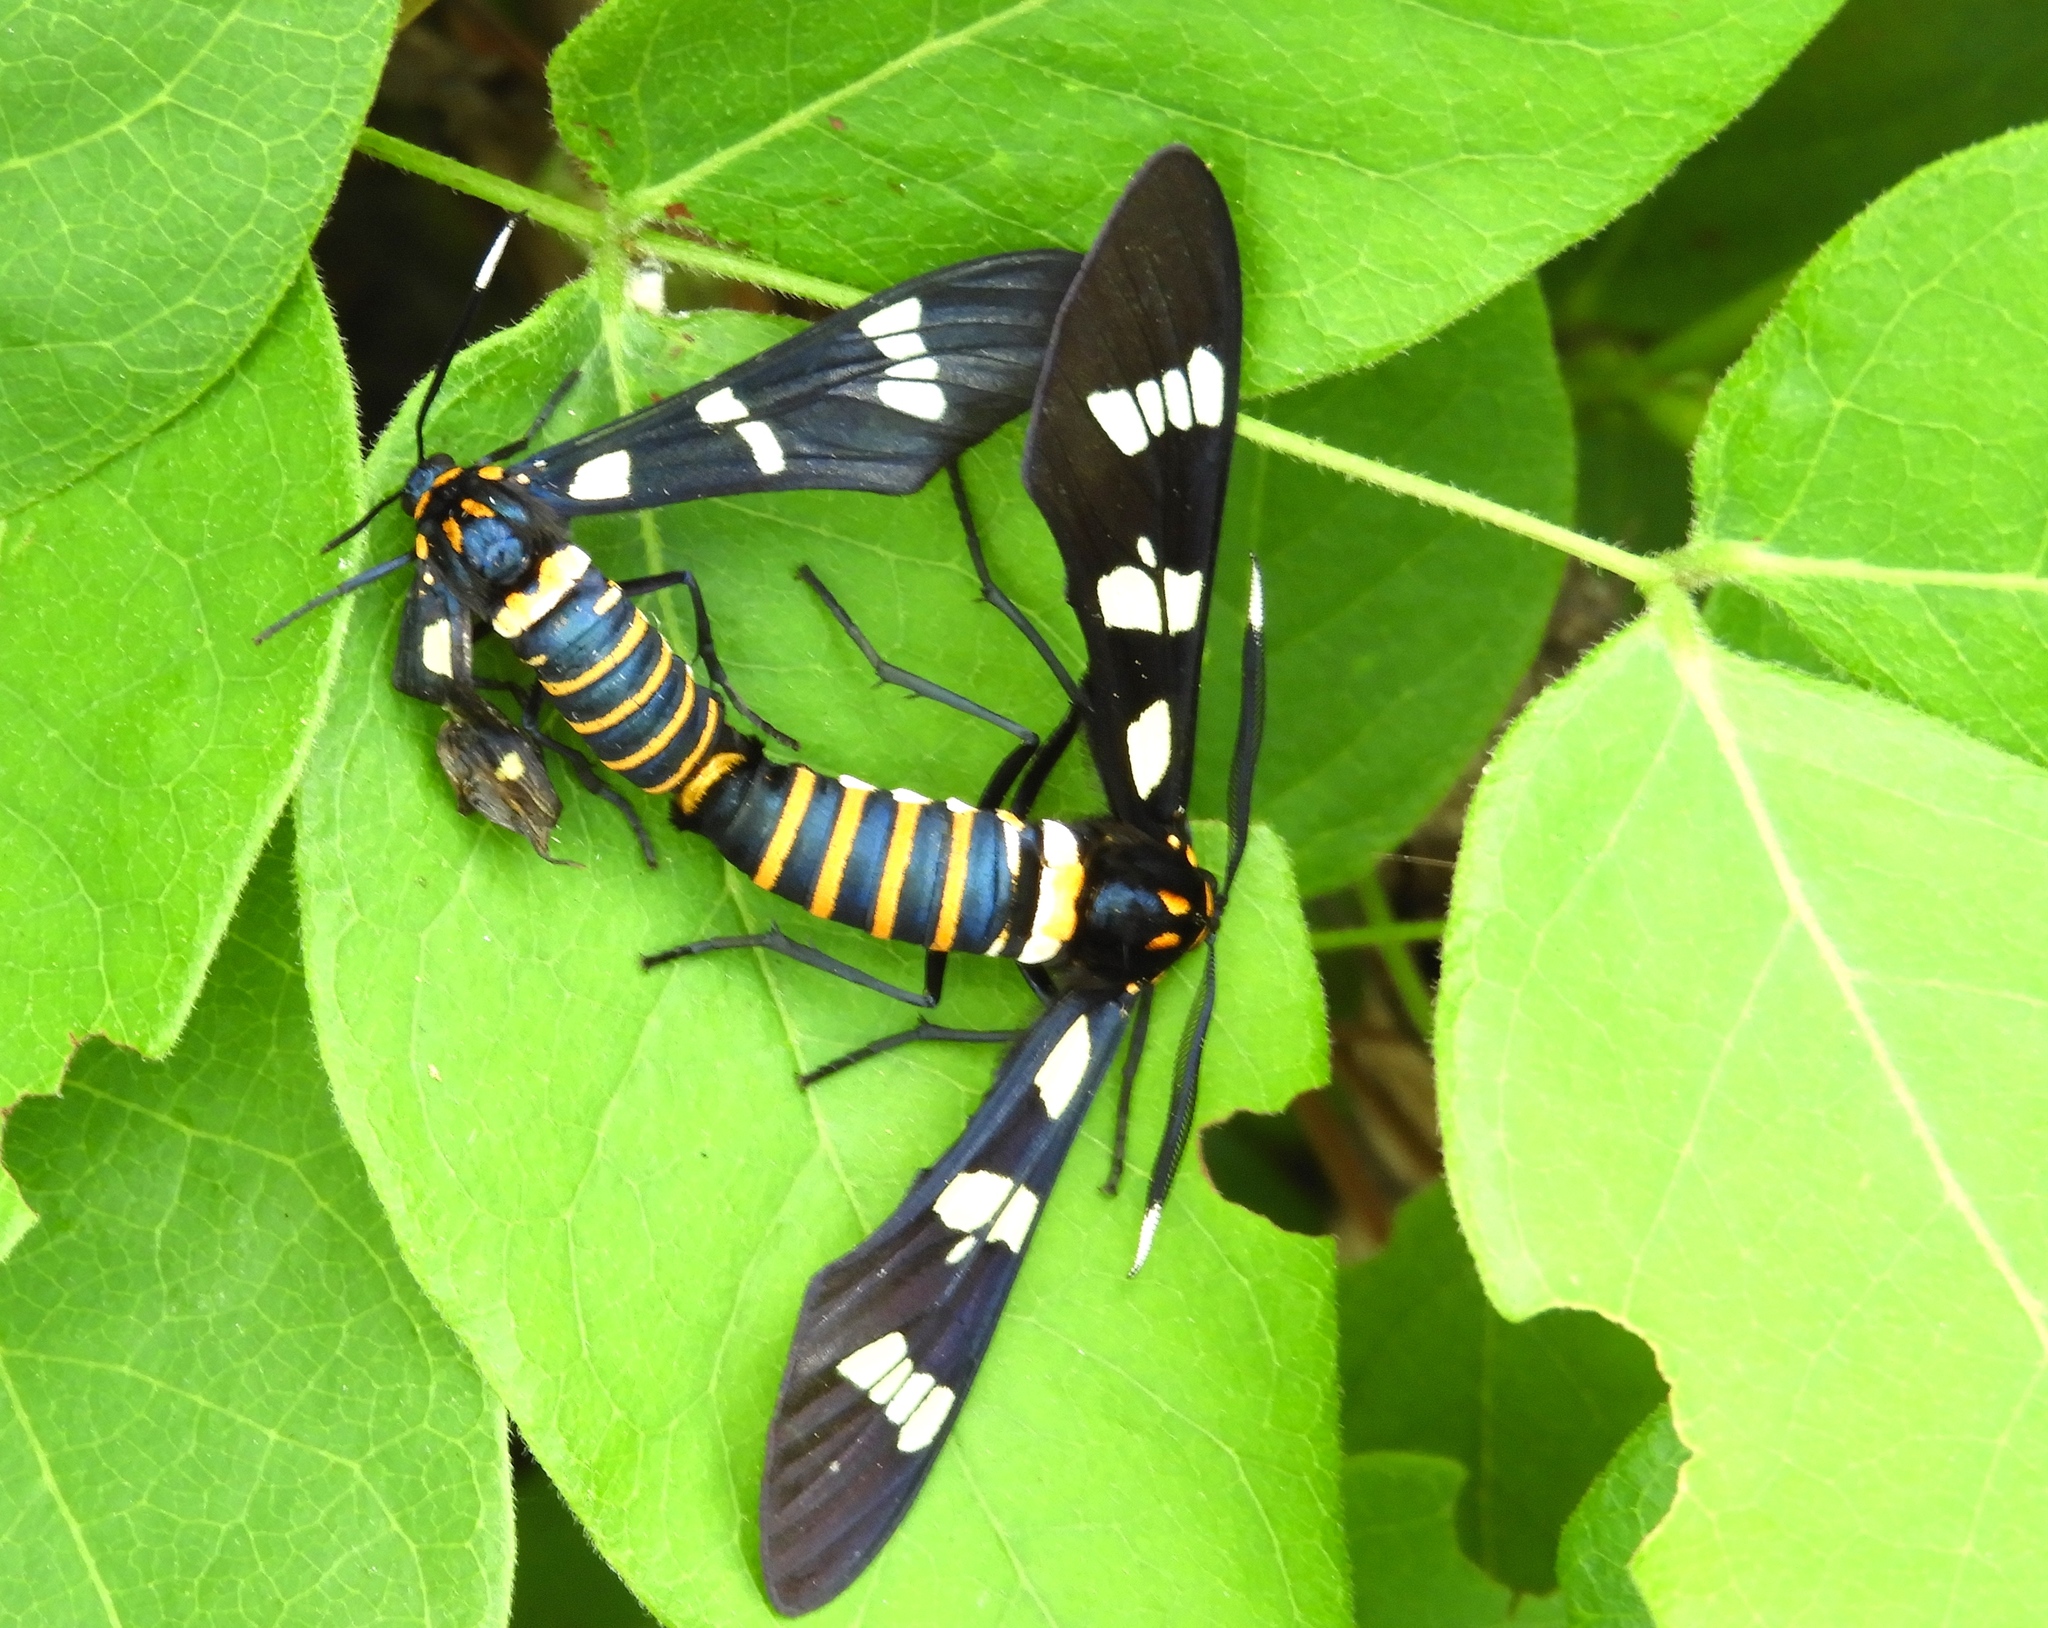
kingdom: Animalia
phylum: Arthropoda
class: Insecta
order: Lepidoptera
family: Erebidae
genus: Syntomeida
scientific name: Syntomeida melanthus
